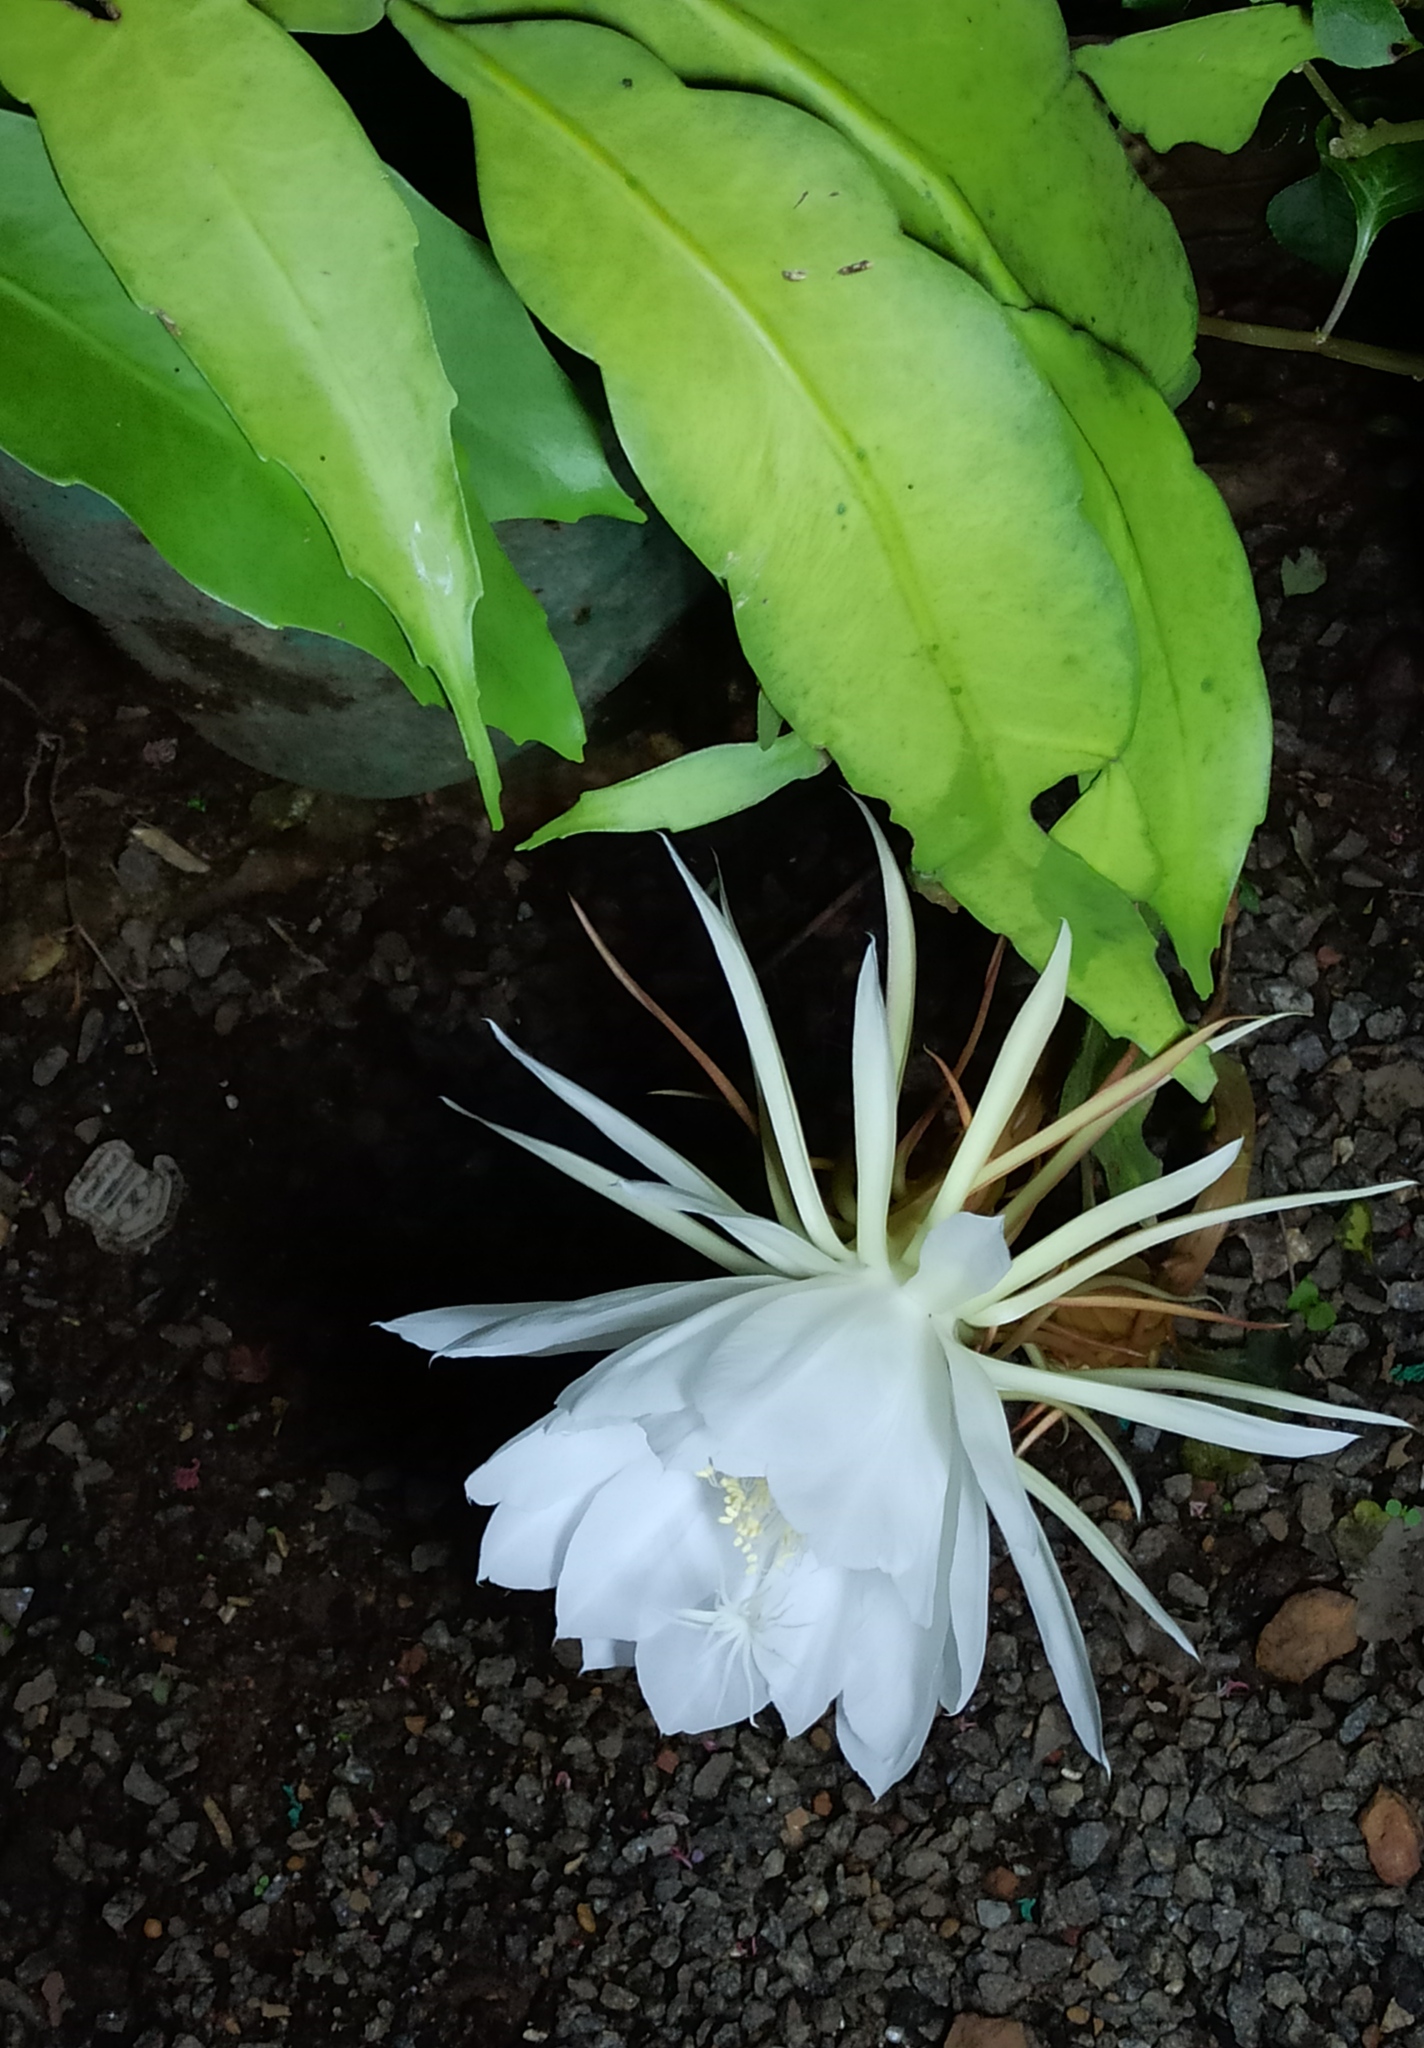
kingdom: Plantae
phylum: Tracheophyta
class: Magnoliopsida
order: Caryophyllales
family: Cactaceae
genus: Epiphyllum
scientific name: Epiphyllum oxypetalum
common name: Dutchman's pipe cactus
